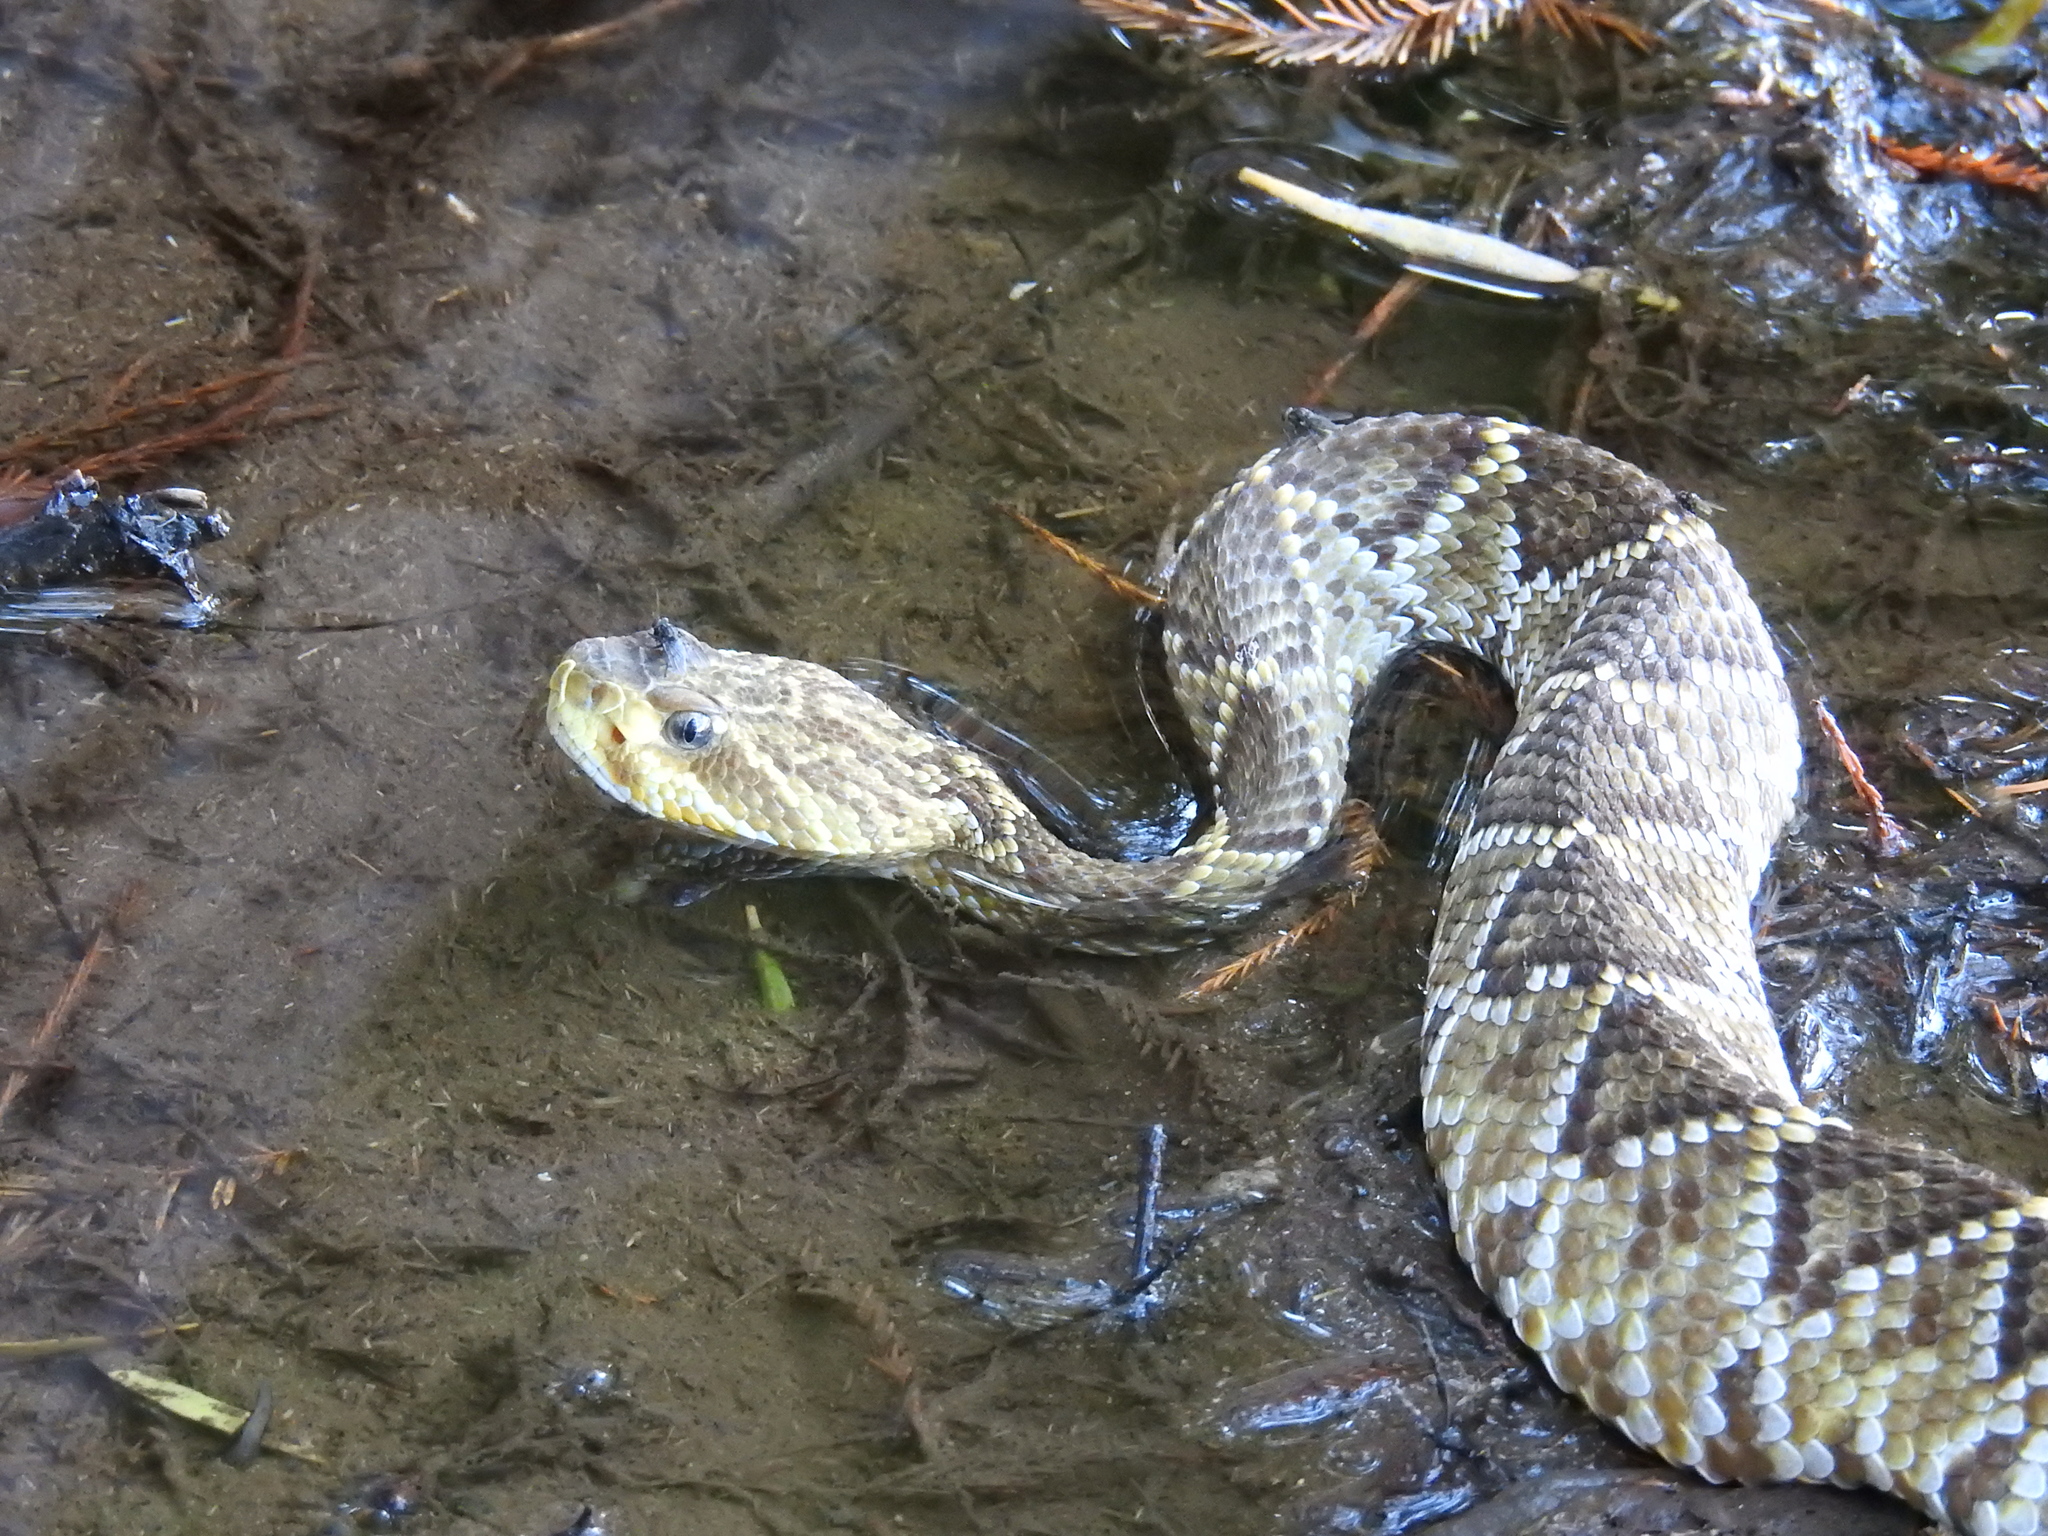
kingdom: Animalia
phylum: Chordata
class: Squamata
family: Viperidae
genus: Crotalus
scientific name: Crotalus basiliscus
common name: Basilisk rattlesnake
